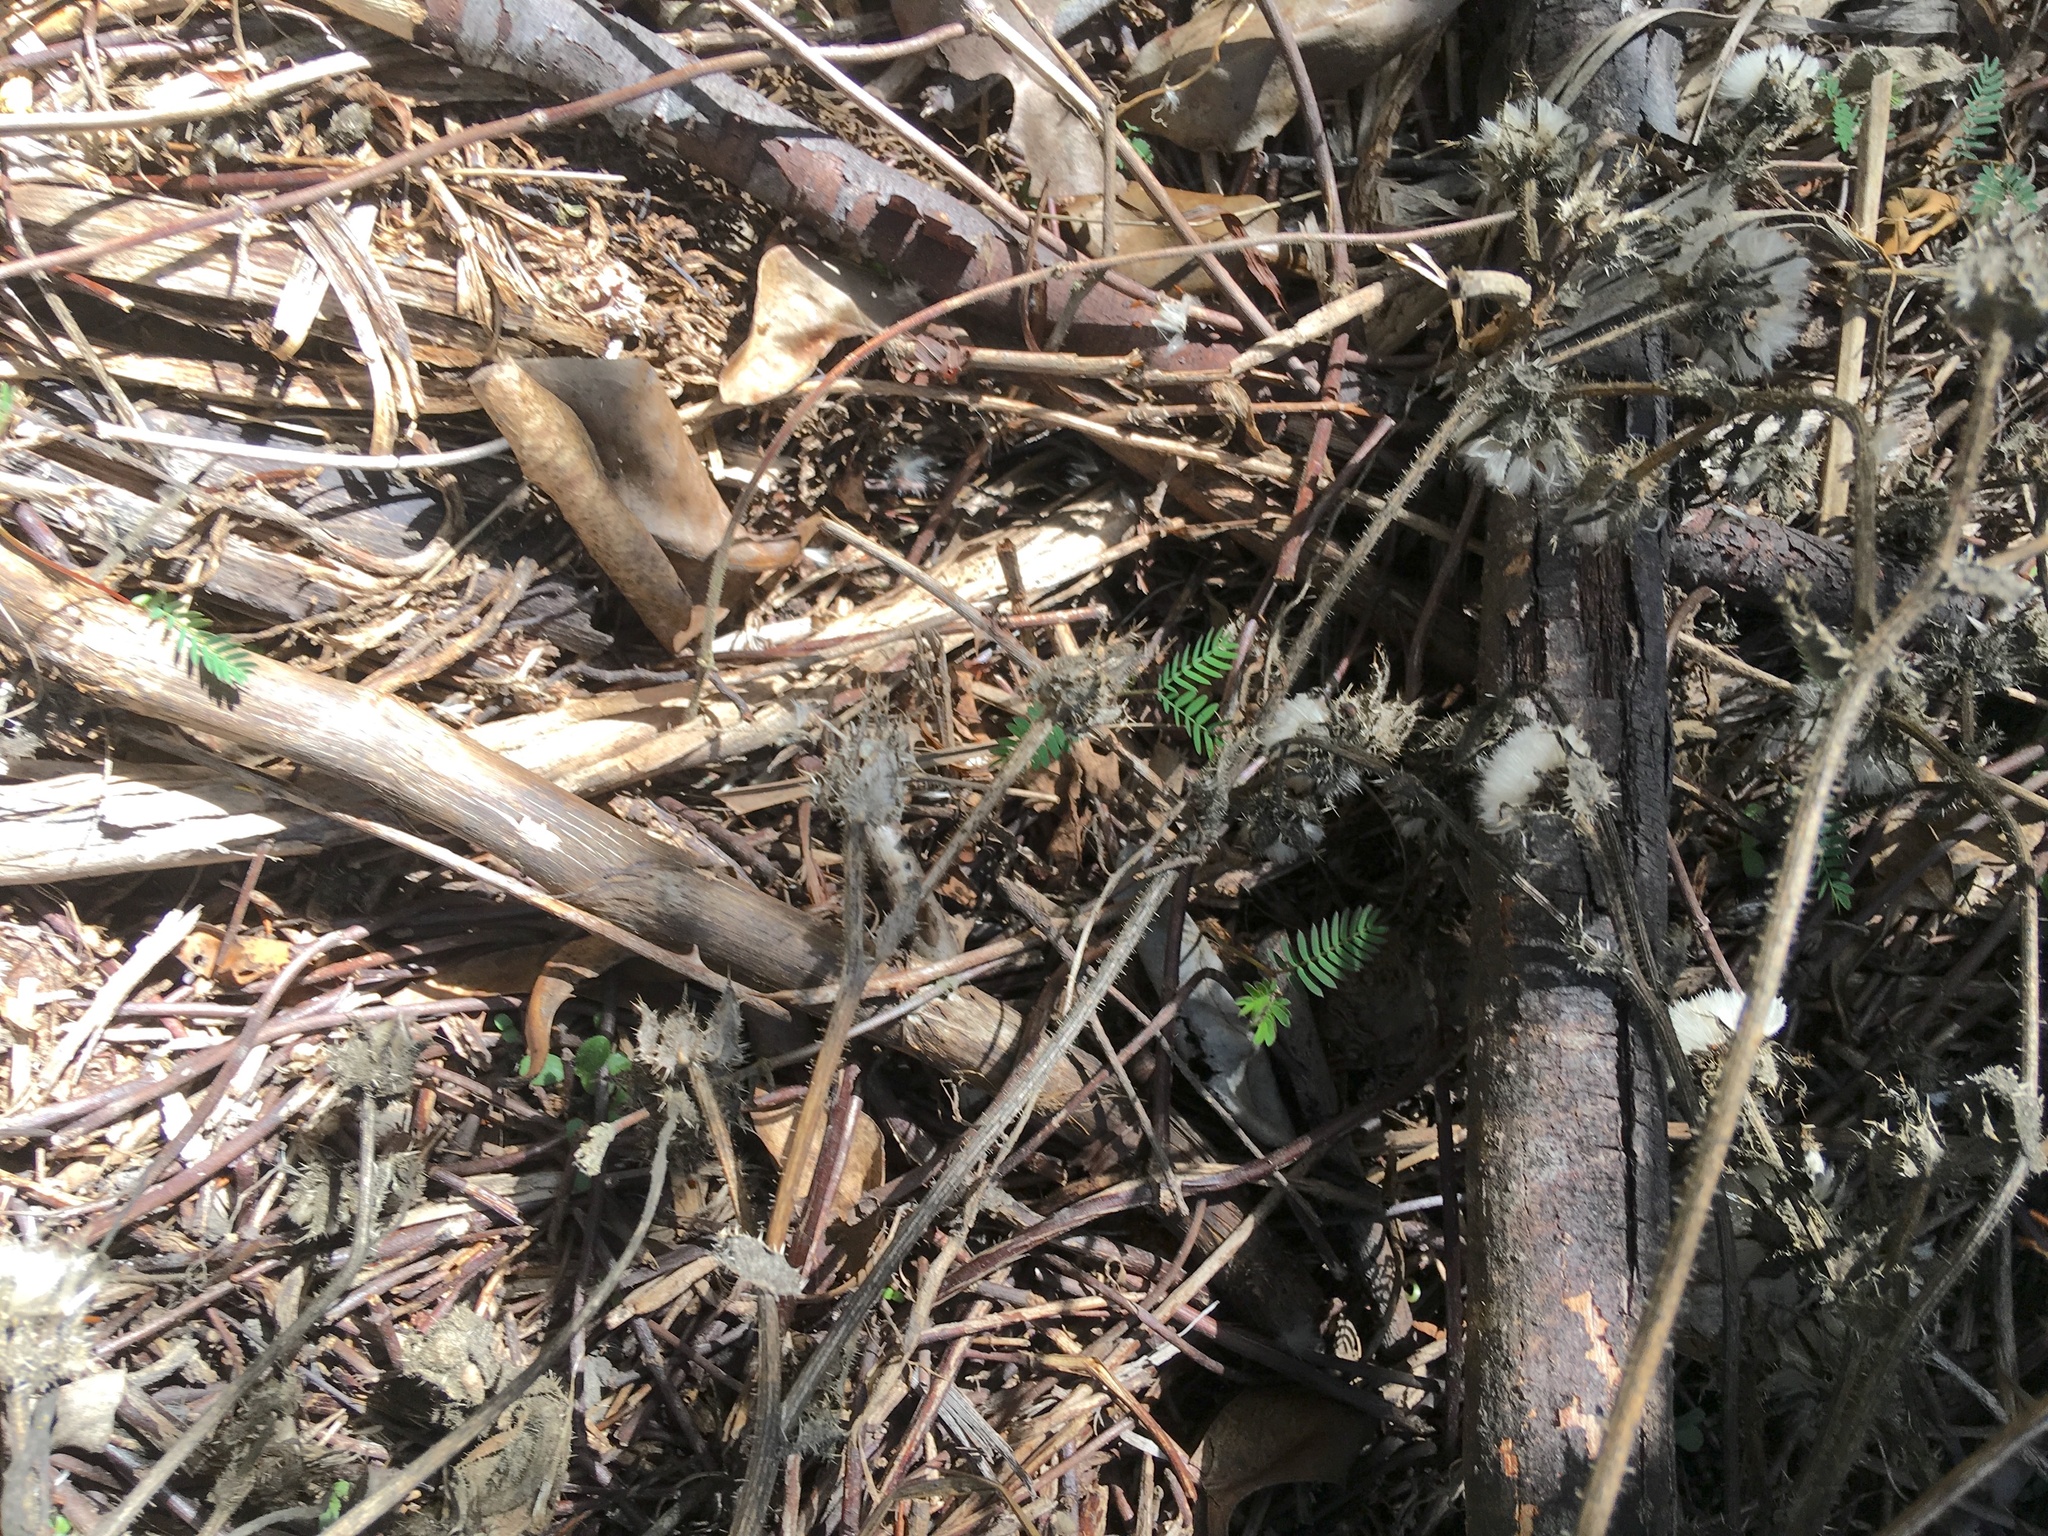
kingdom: Plantae
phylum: Tracheophyta
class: Magnoliopsida
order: Asterales
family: Asteraceae
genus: Helminthotheca
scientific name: Helminthotheca echioides
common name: Ox-tongue
